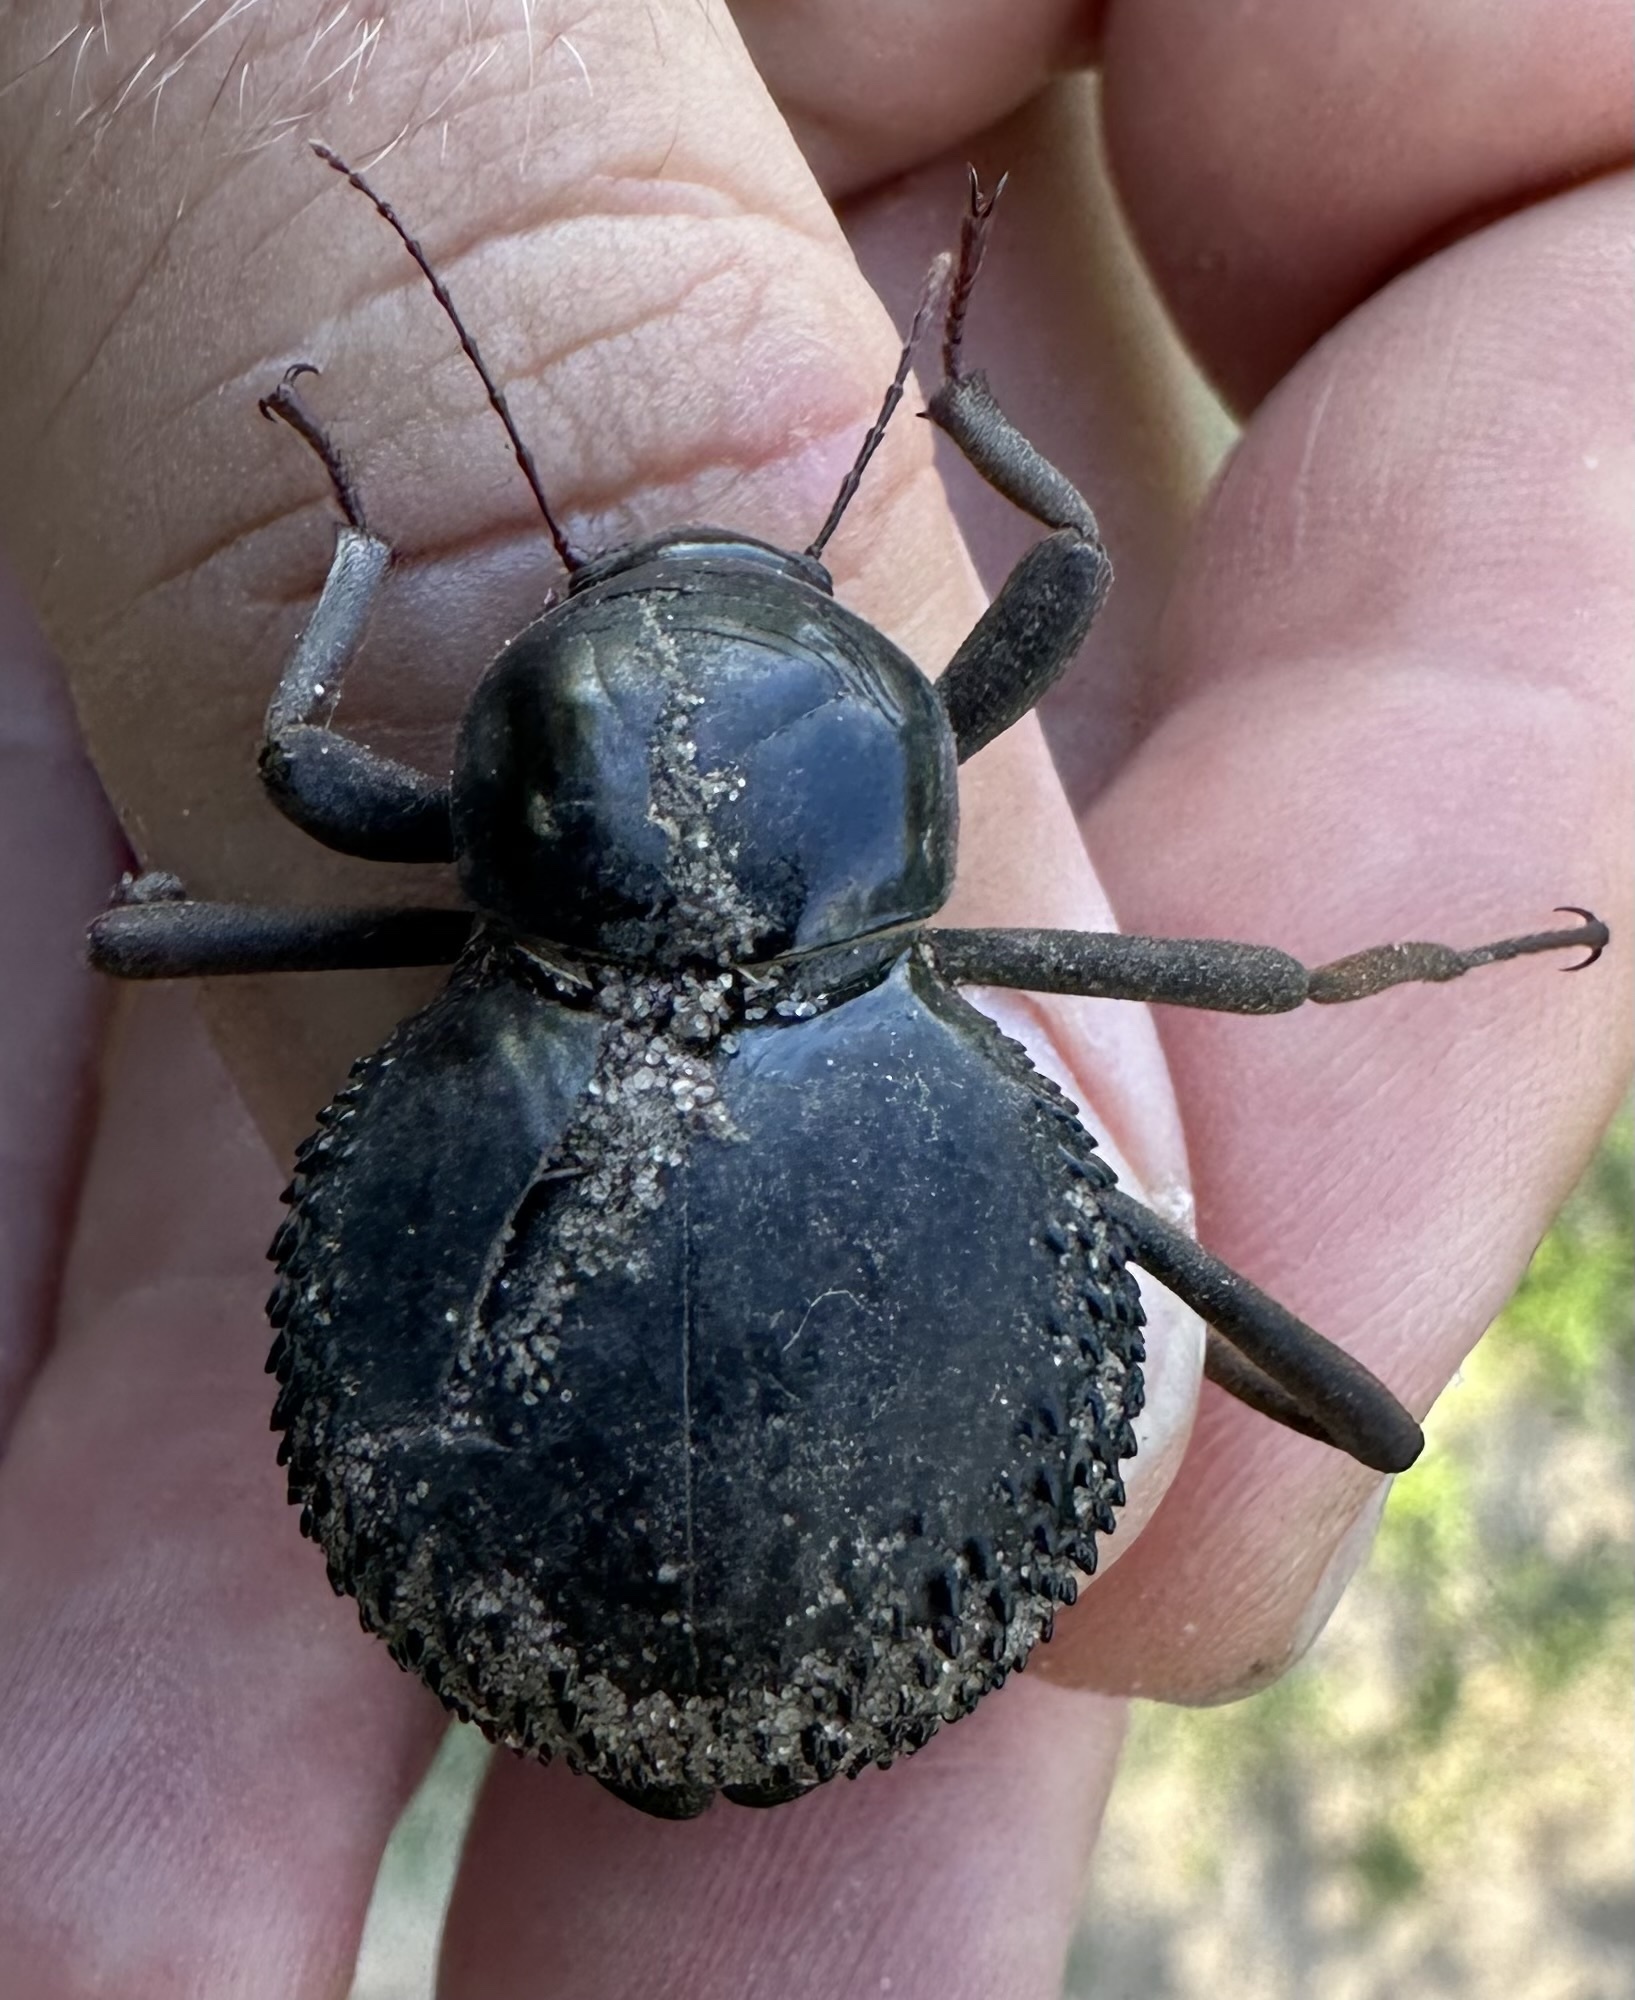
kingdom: Animalia
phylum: Arthropoda
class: Insecta
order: Coleoptera
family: Tenebrionidae
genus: Psammodes
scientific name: Psammodes vialis
